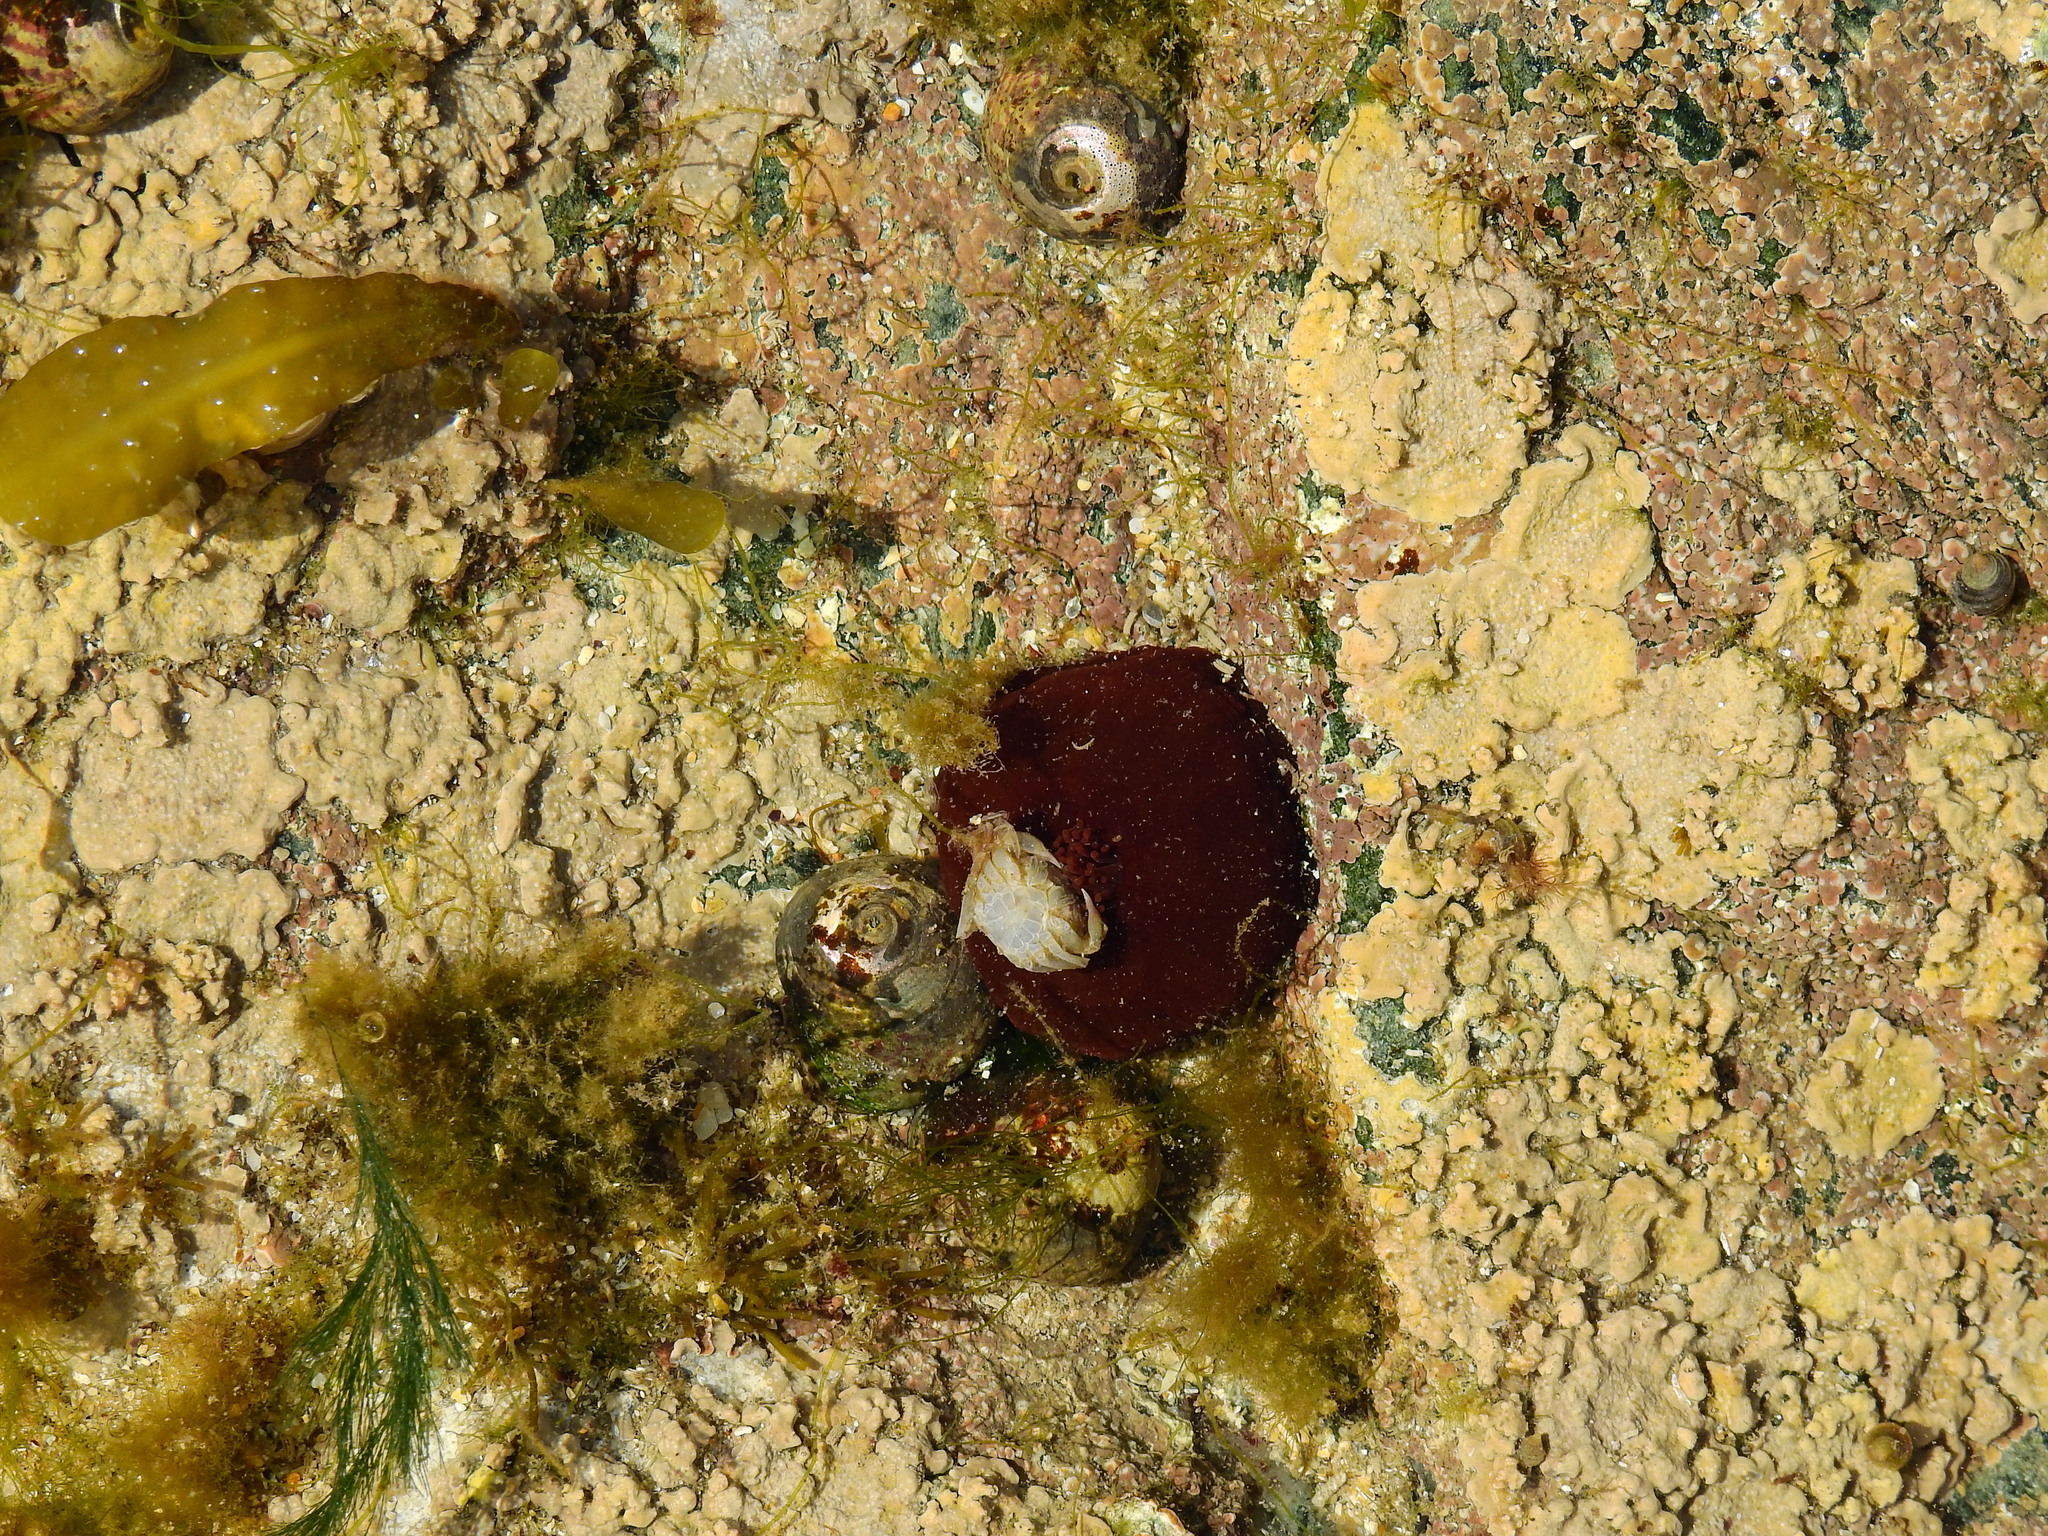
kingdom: Animalia
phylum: Cnidaria
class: Anthozoa
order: Actiniaria
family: Actiniidae
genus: Actinia
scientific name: Actinia equina
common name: Beadlet anemone
